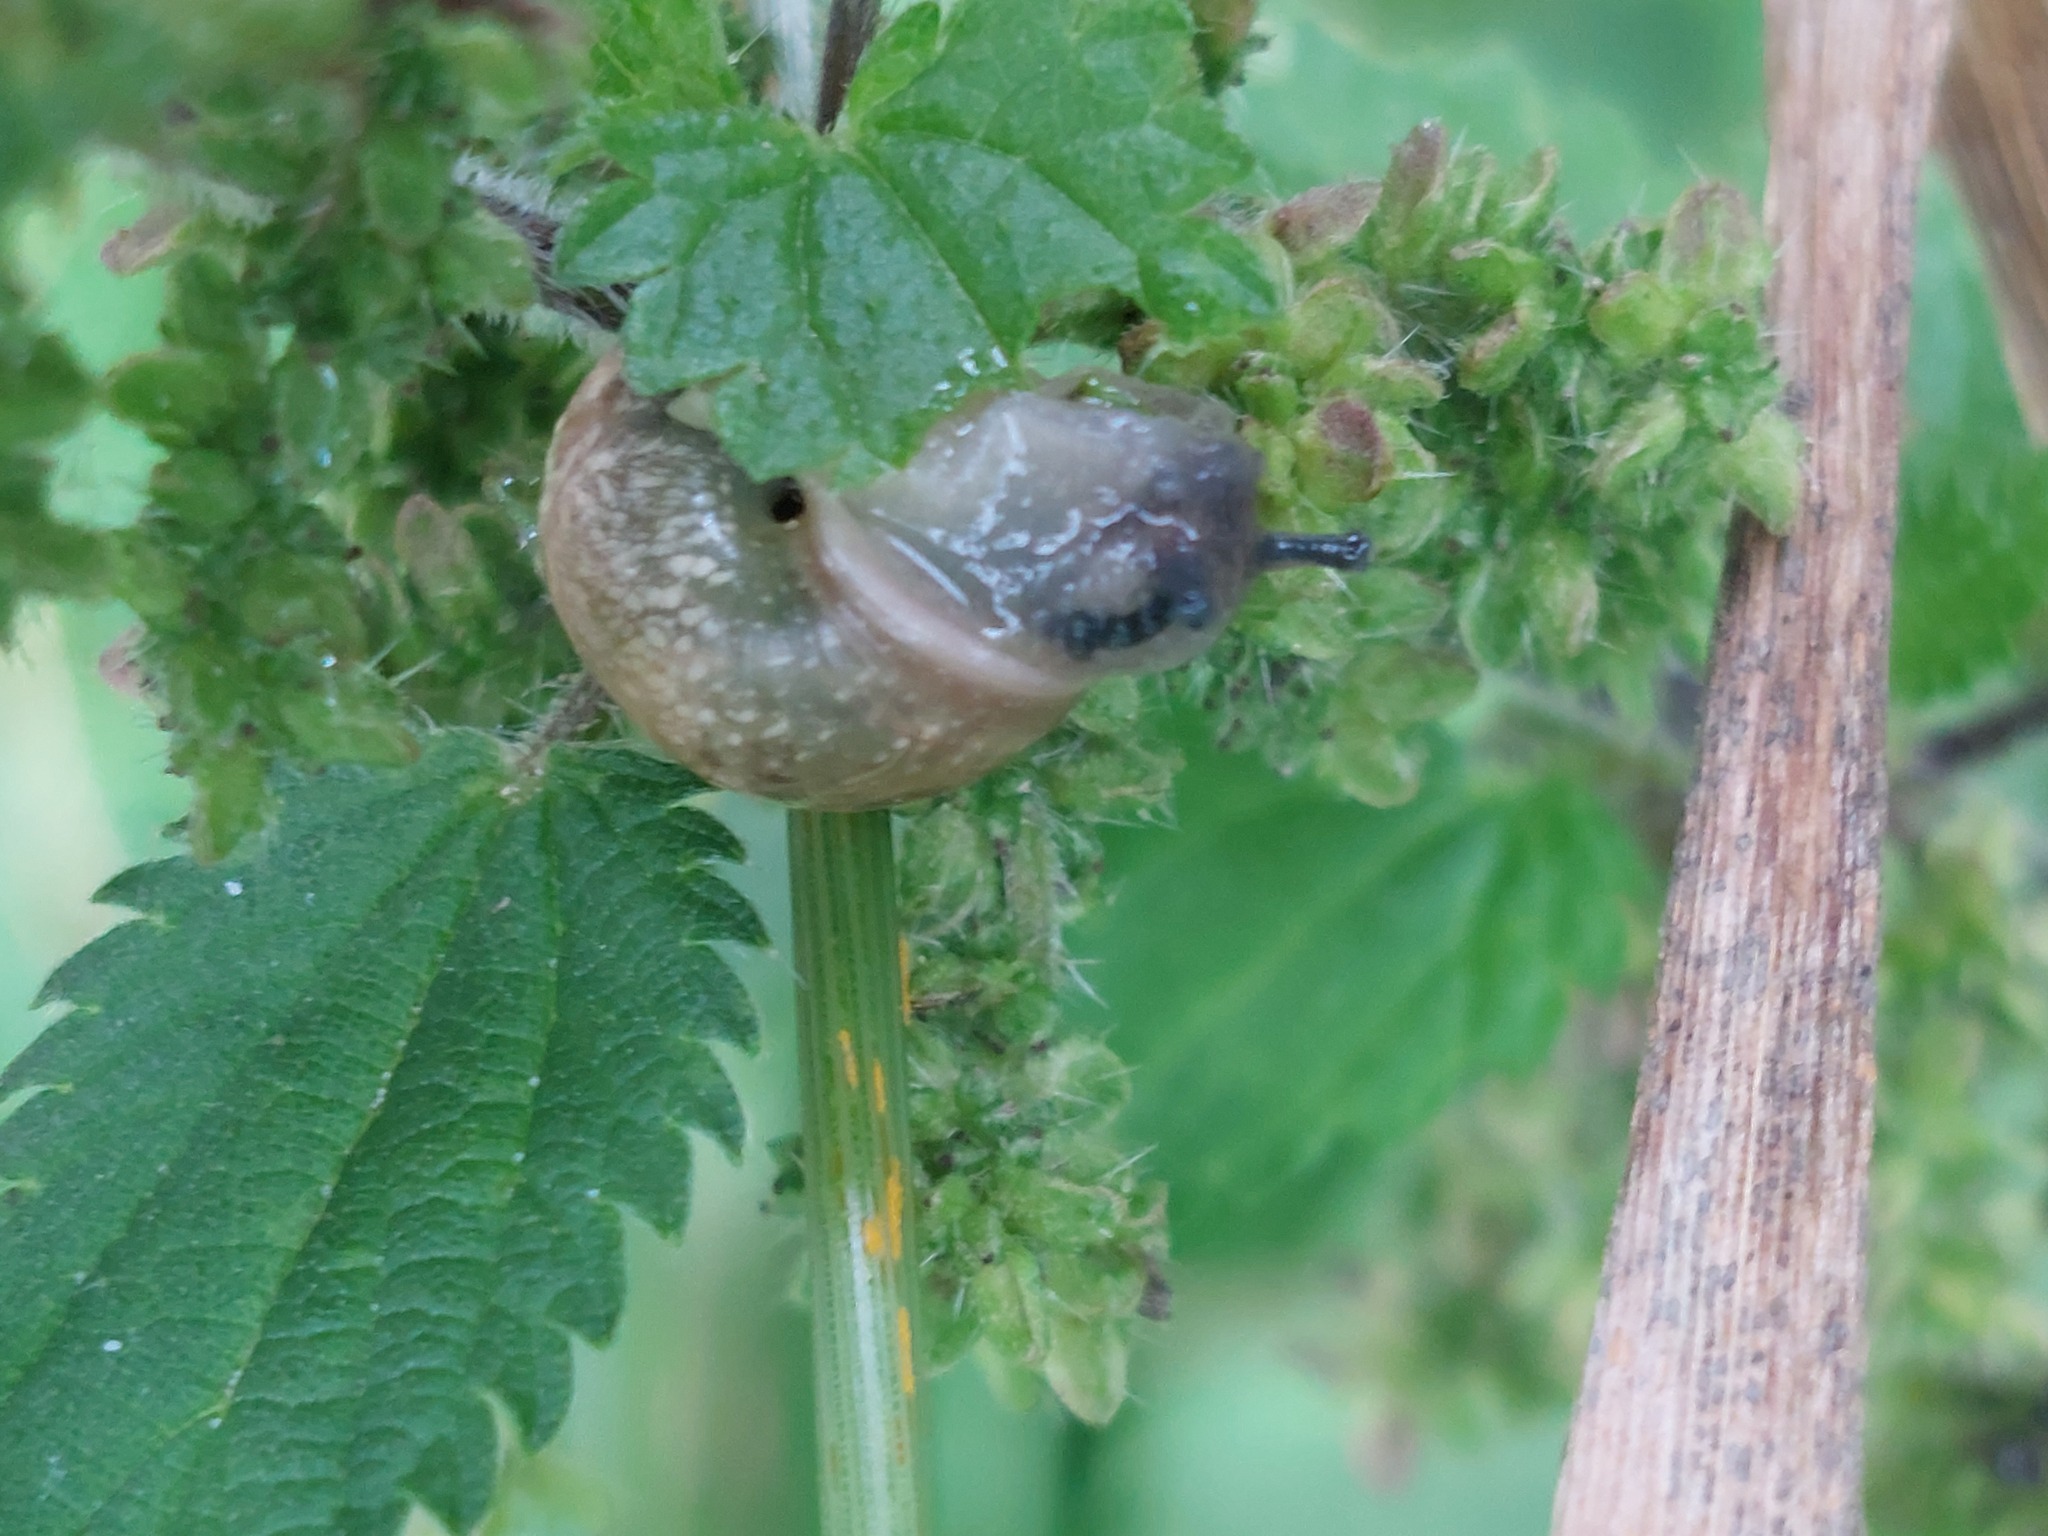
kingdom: Animalia
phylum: Mollusca
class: Gastropoda
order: Stylommatophora
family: Helicidae
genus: Helix
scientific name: Helix pomatia
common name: Roman snail
